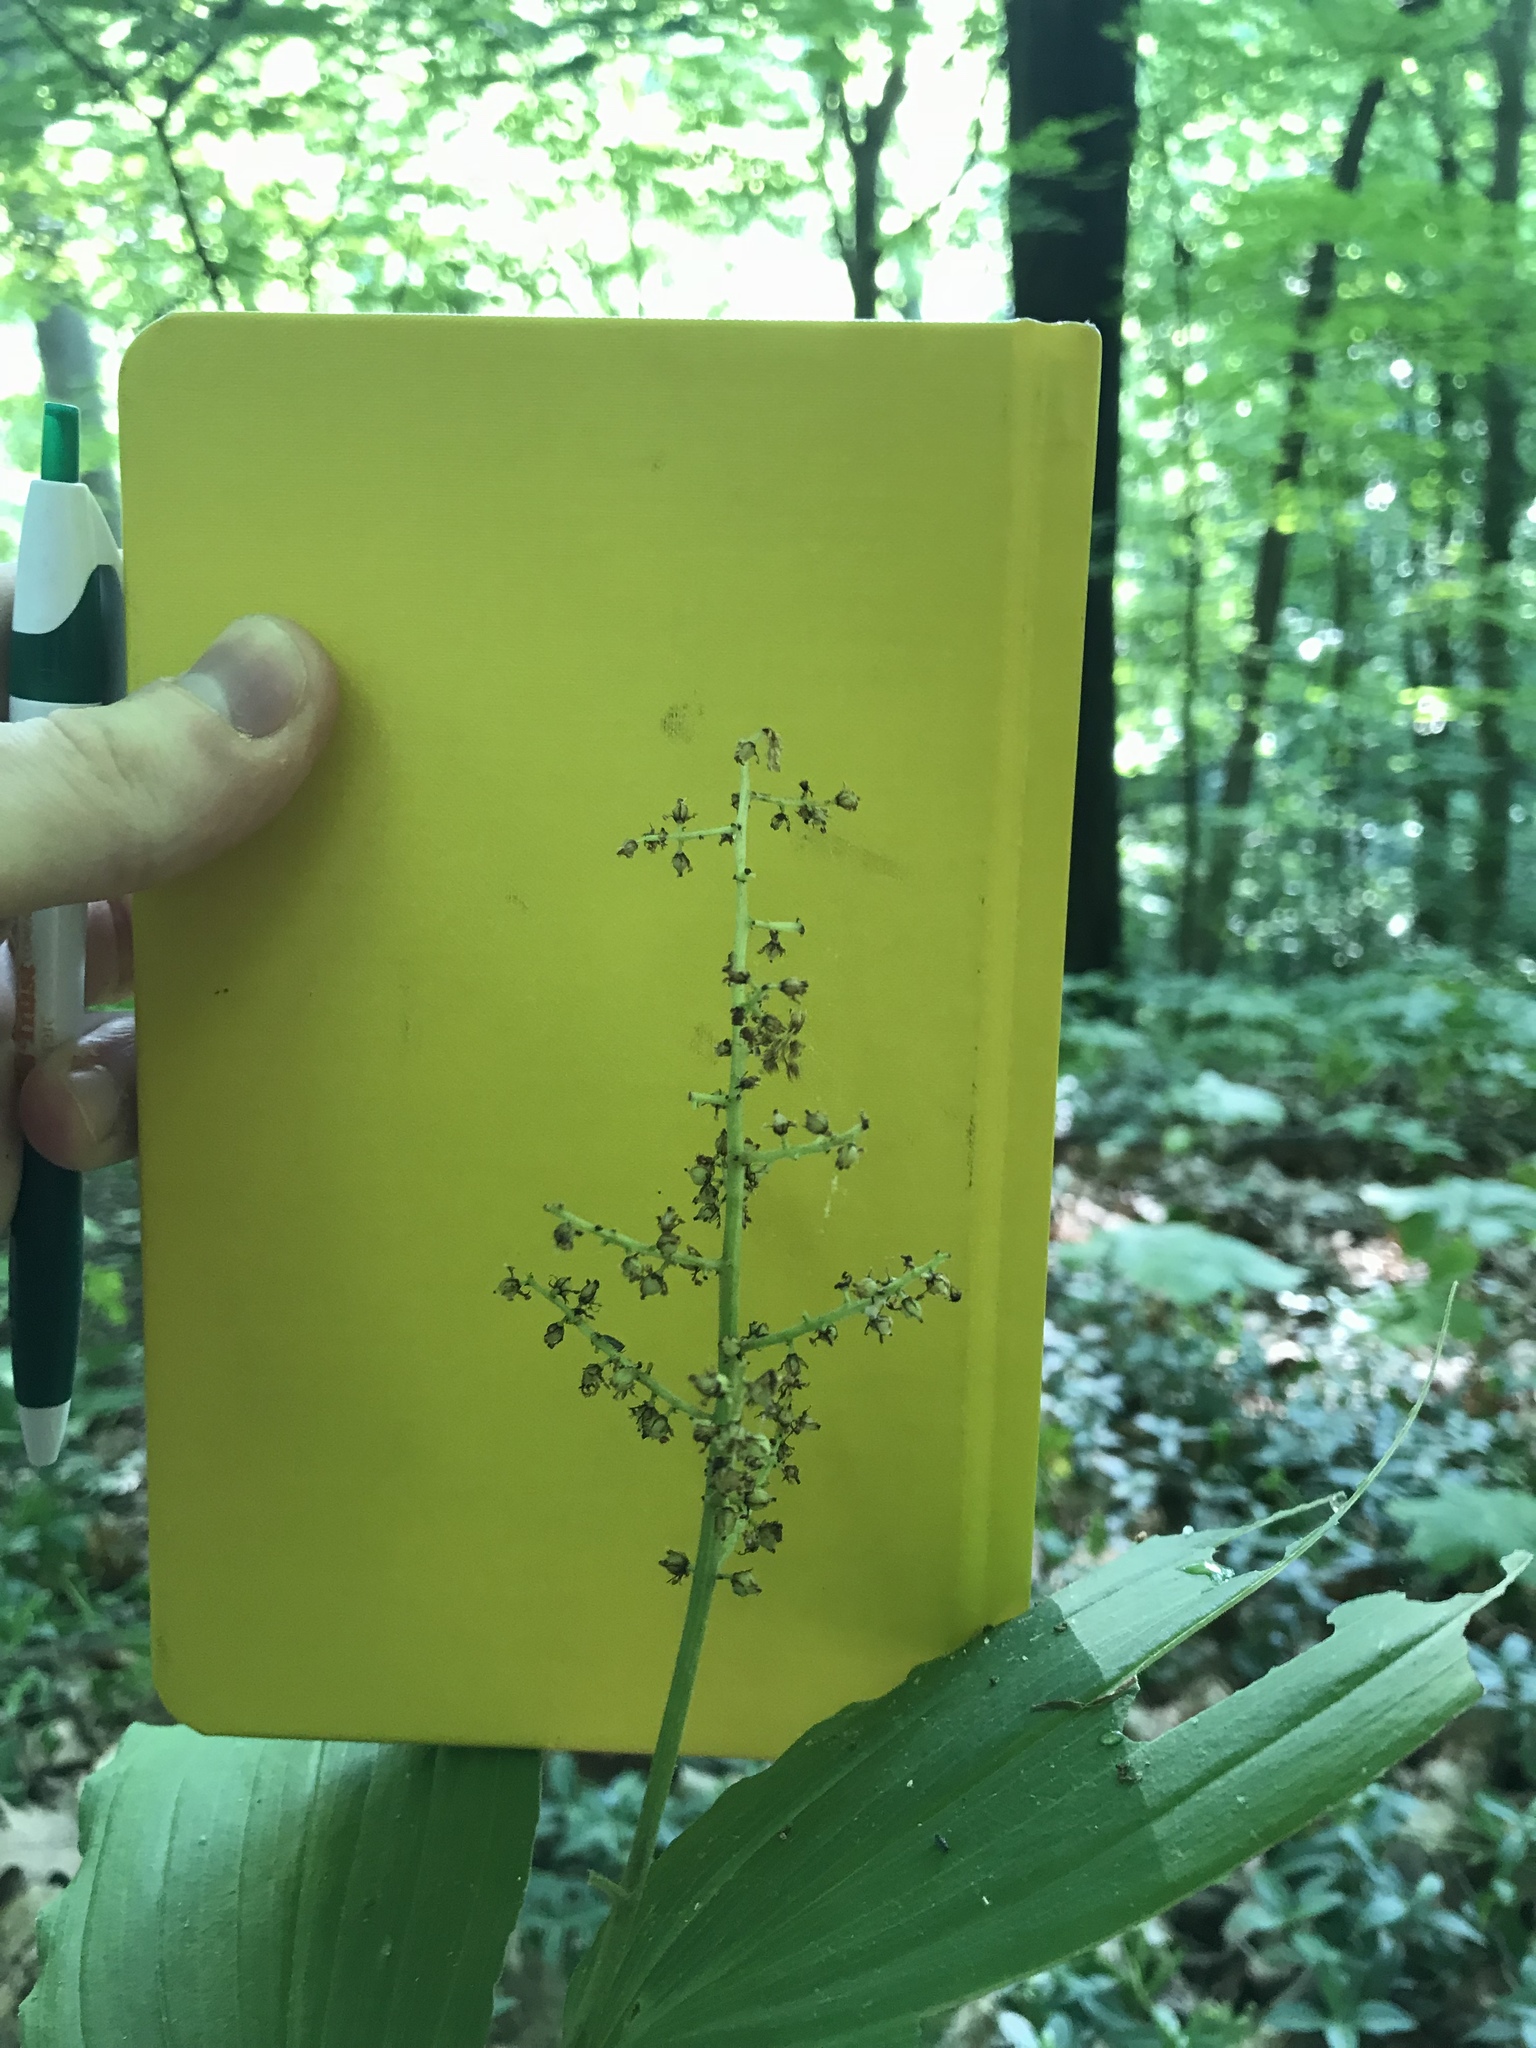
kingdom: Plantae
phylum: Tracheophyta
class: Liliopsida
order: Asparagales
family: Asparagaceae
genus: Maianthemum
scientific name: Maianthemum racemosum
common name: False spikenard
